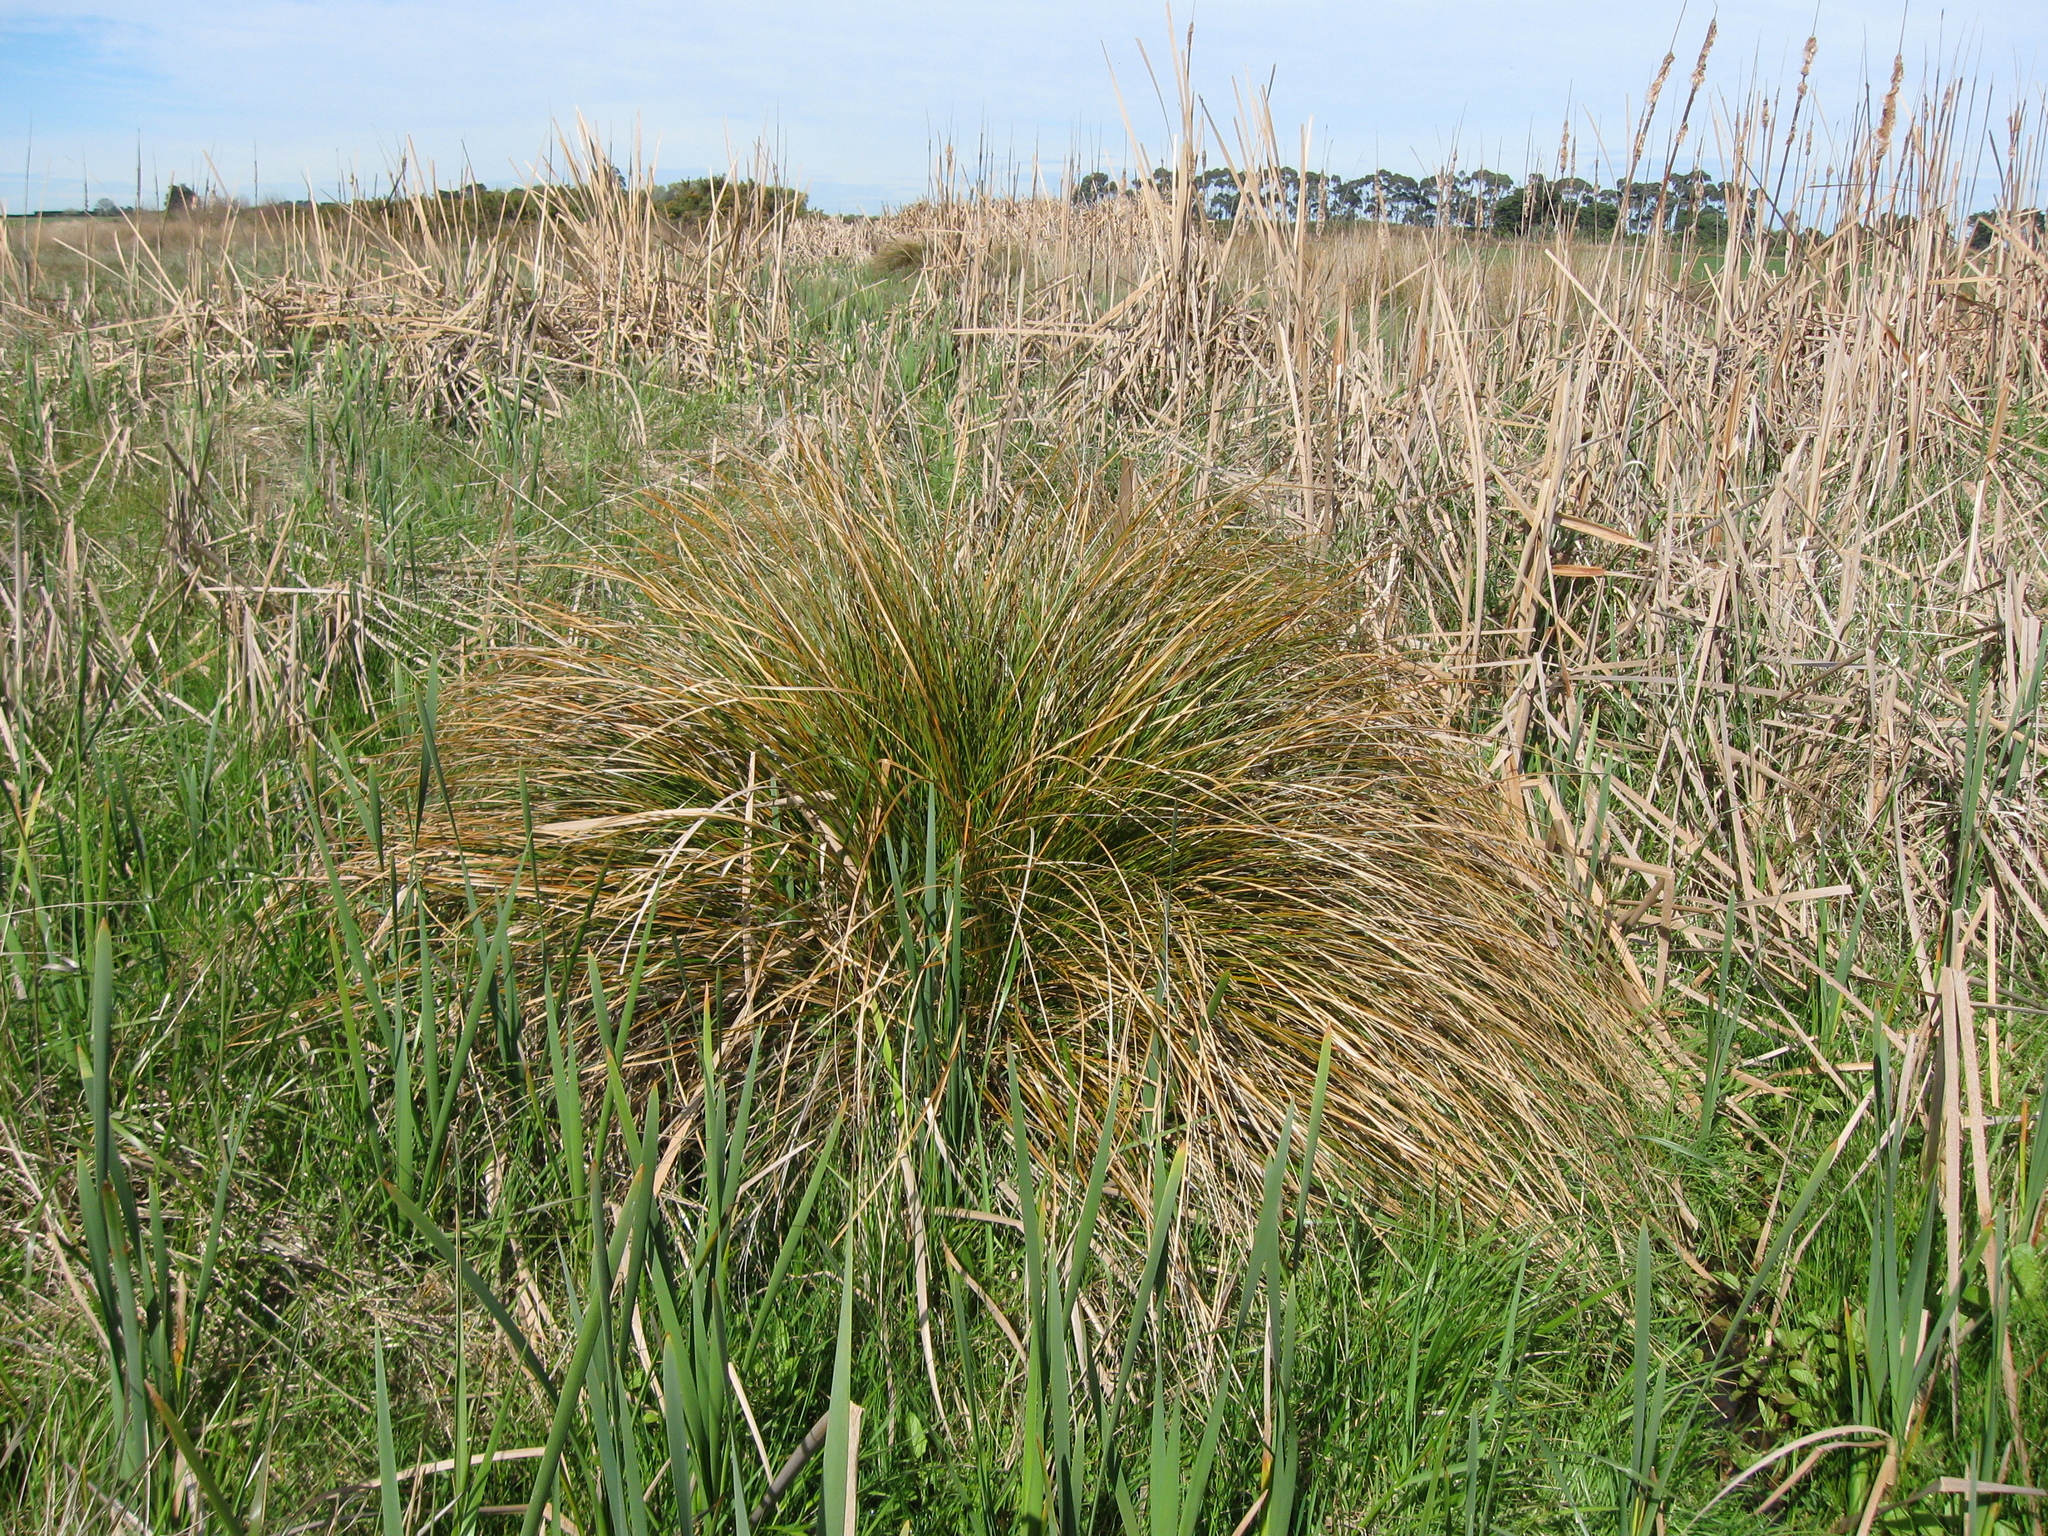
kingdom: Plantae
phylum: Tracheophyta
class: Liliopsida
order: Poales
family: Cyperaceae
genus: Carex
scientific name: Carex secta
